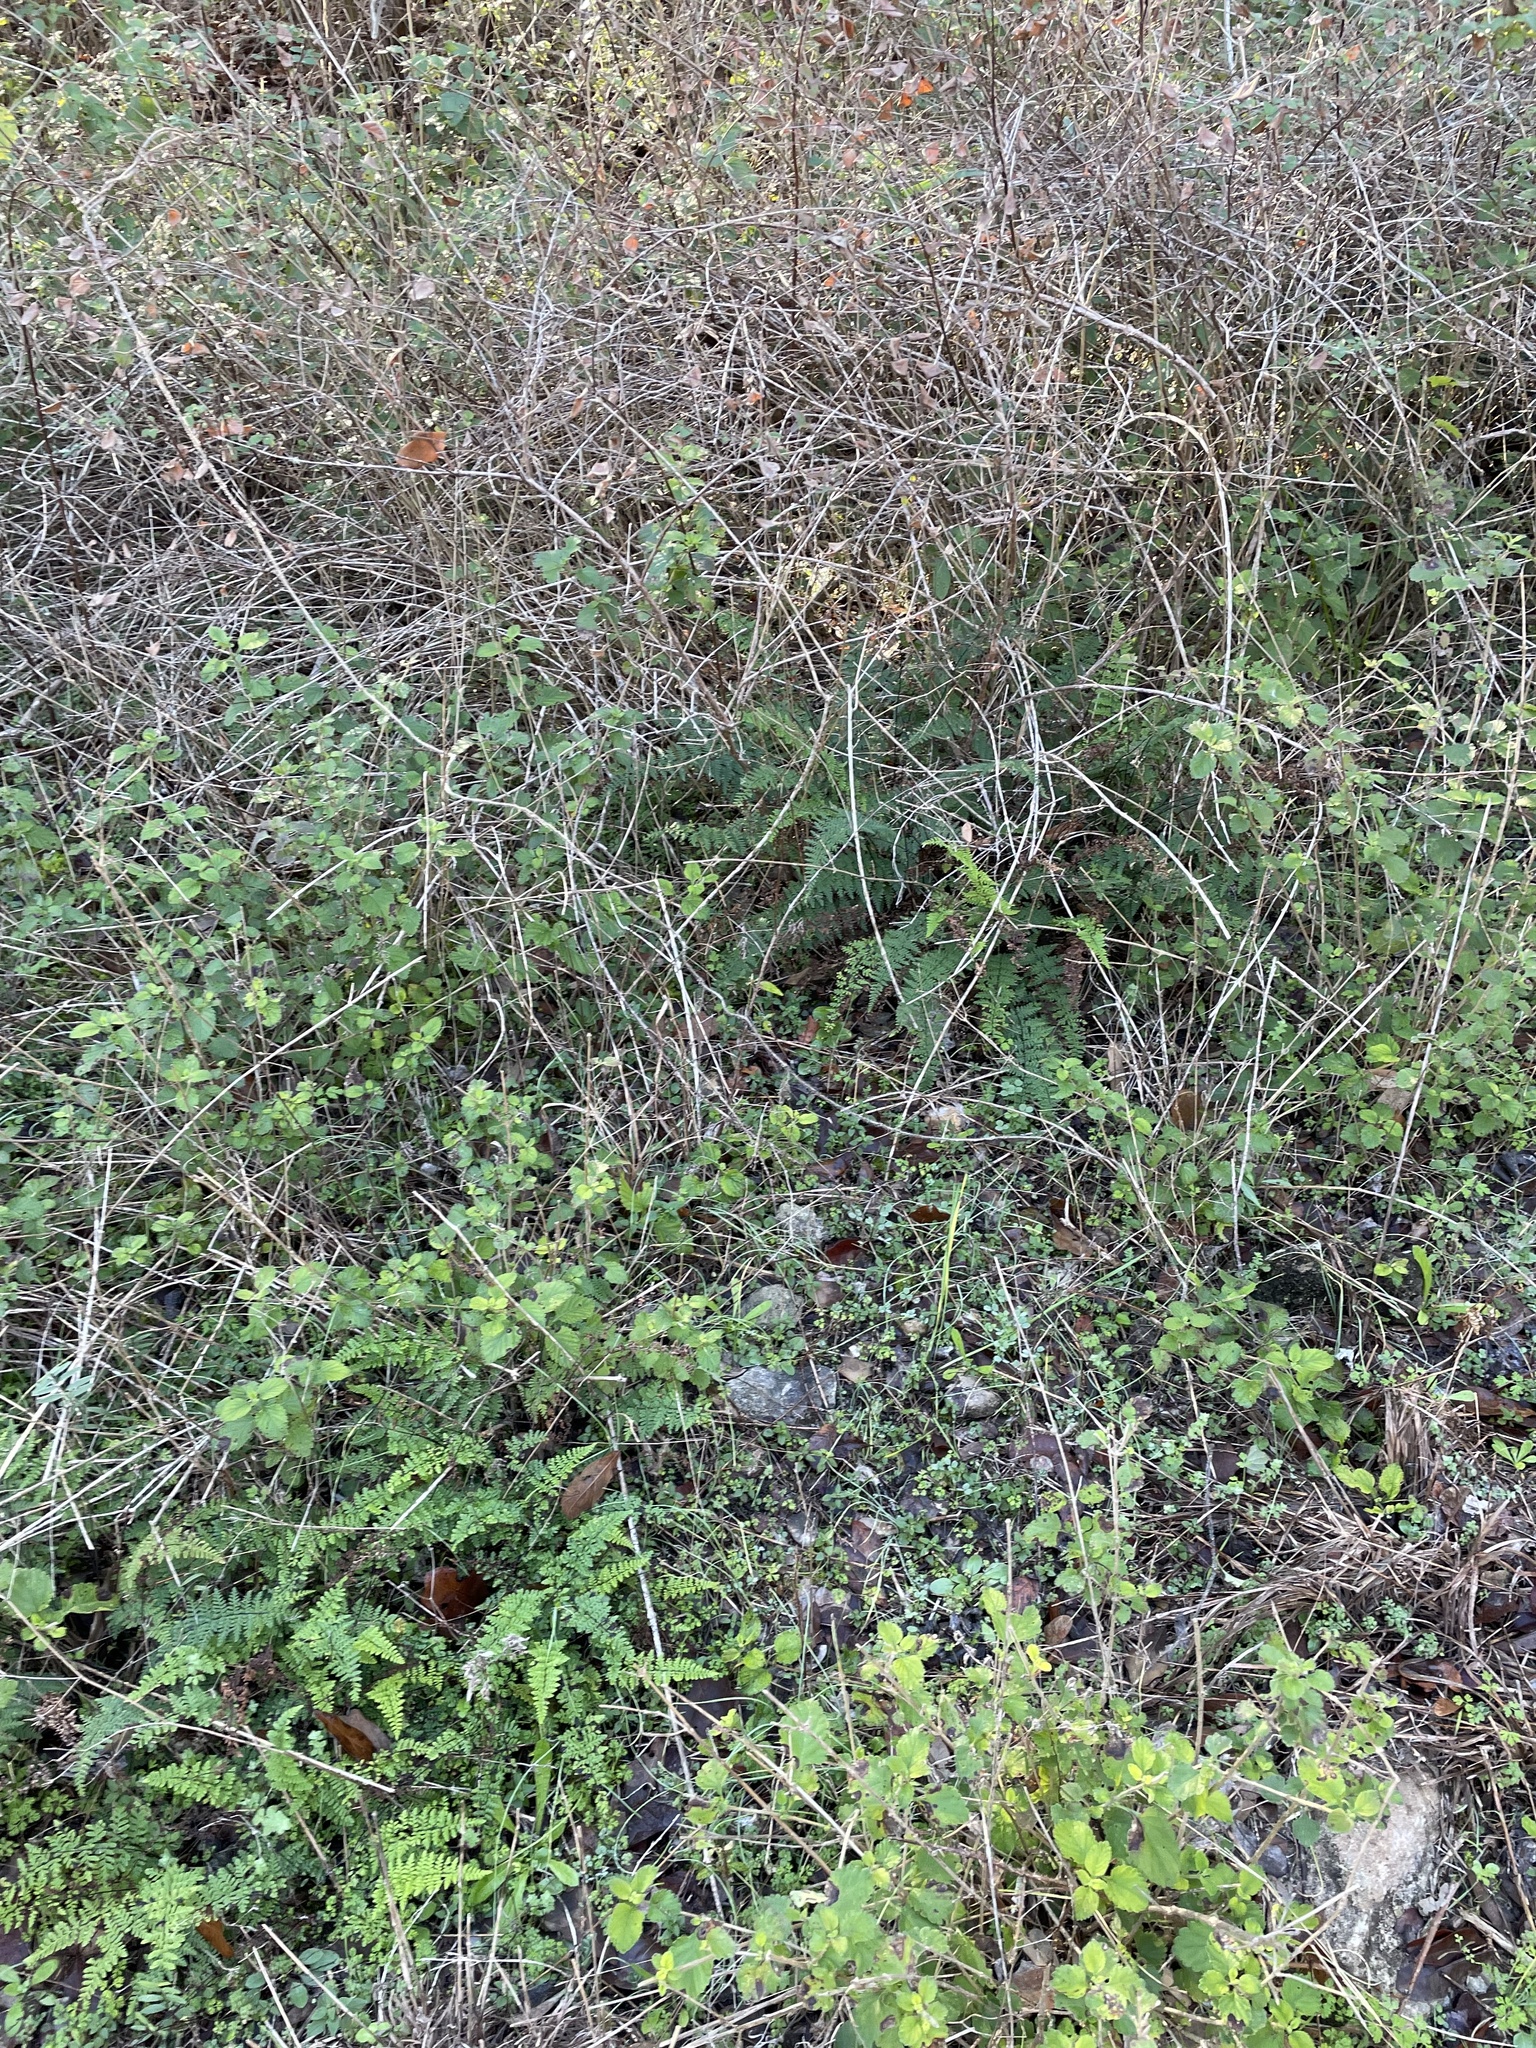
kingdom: Plantae
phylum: Tracheophyta
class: Polypodiopsida
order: Polypodiales
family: Pteridaceae
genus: Myriopteris
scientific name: Myriopteris alabamensis
